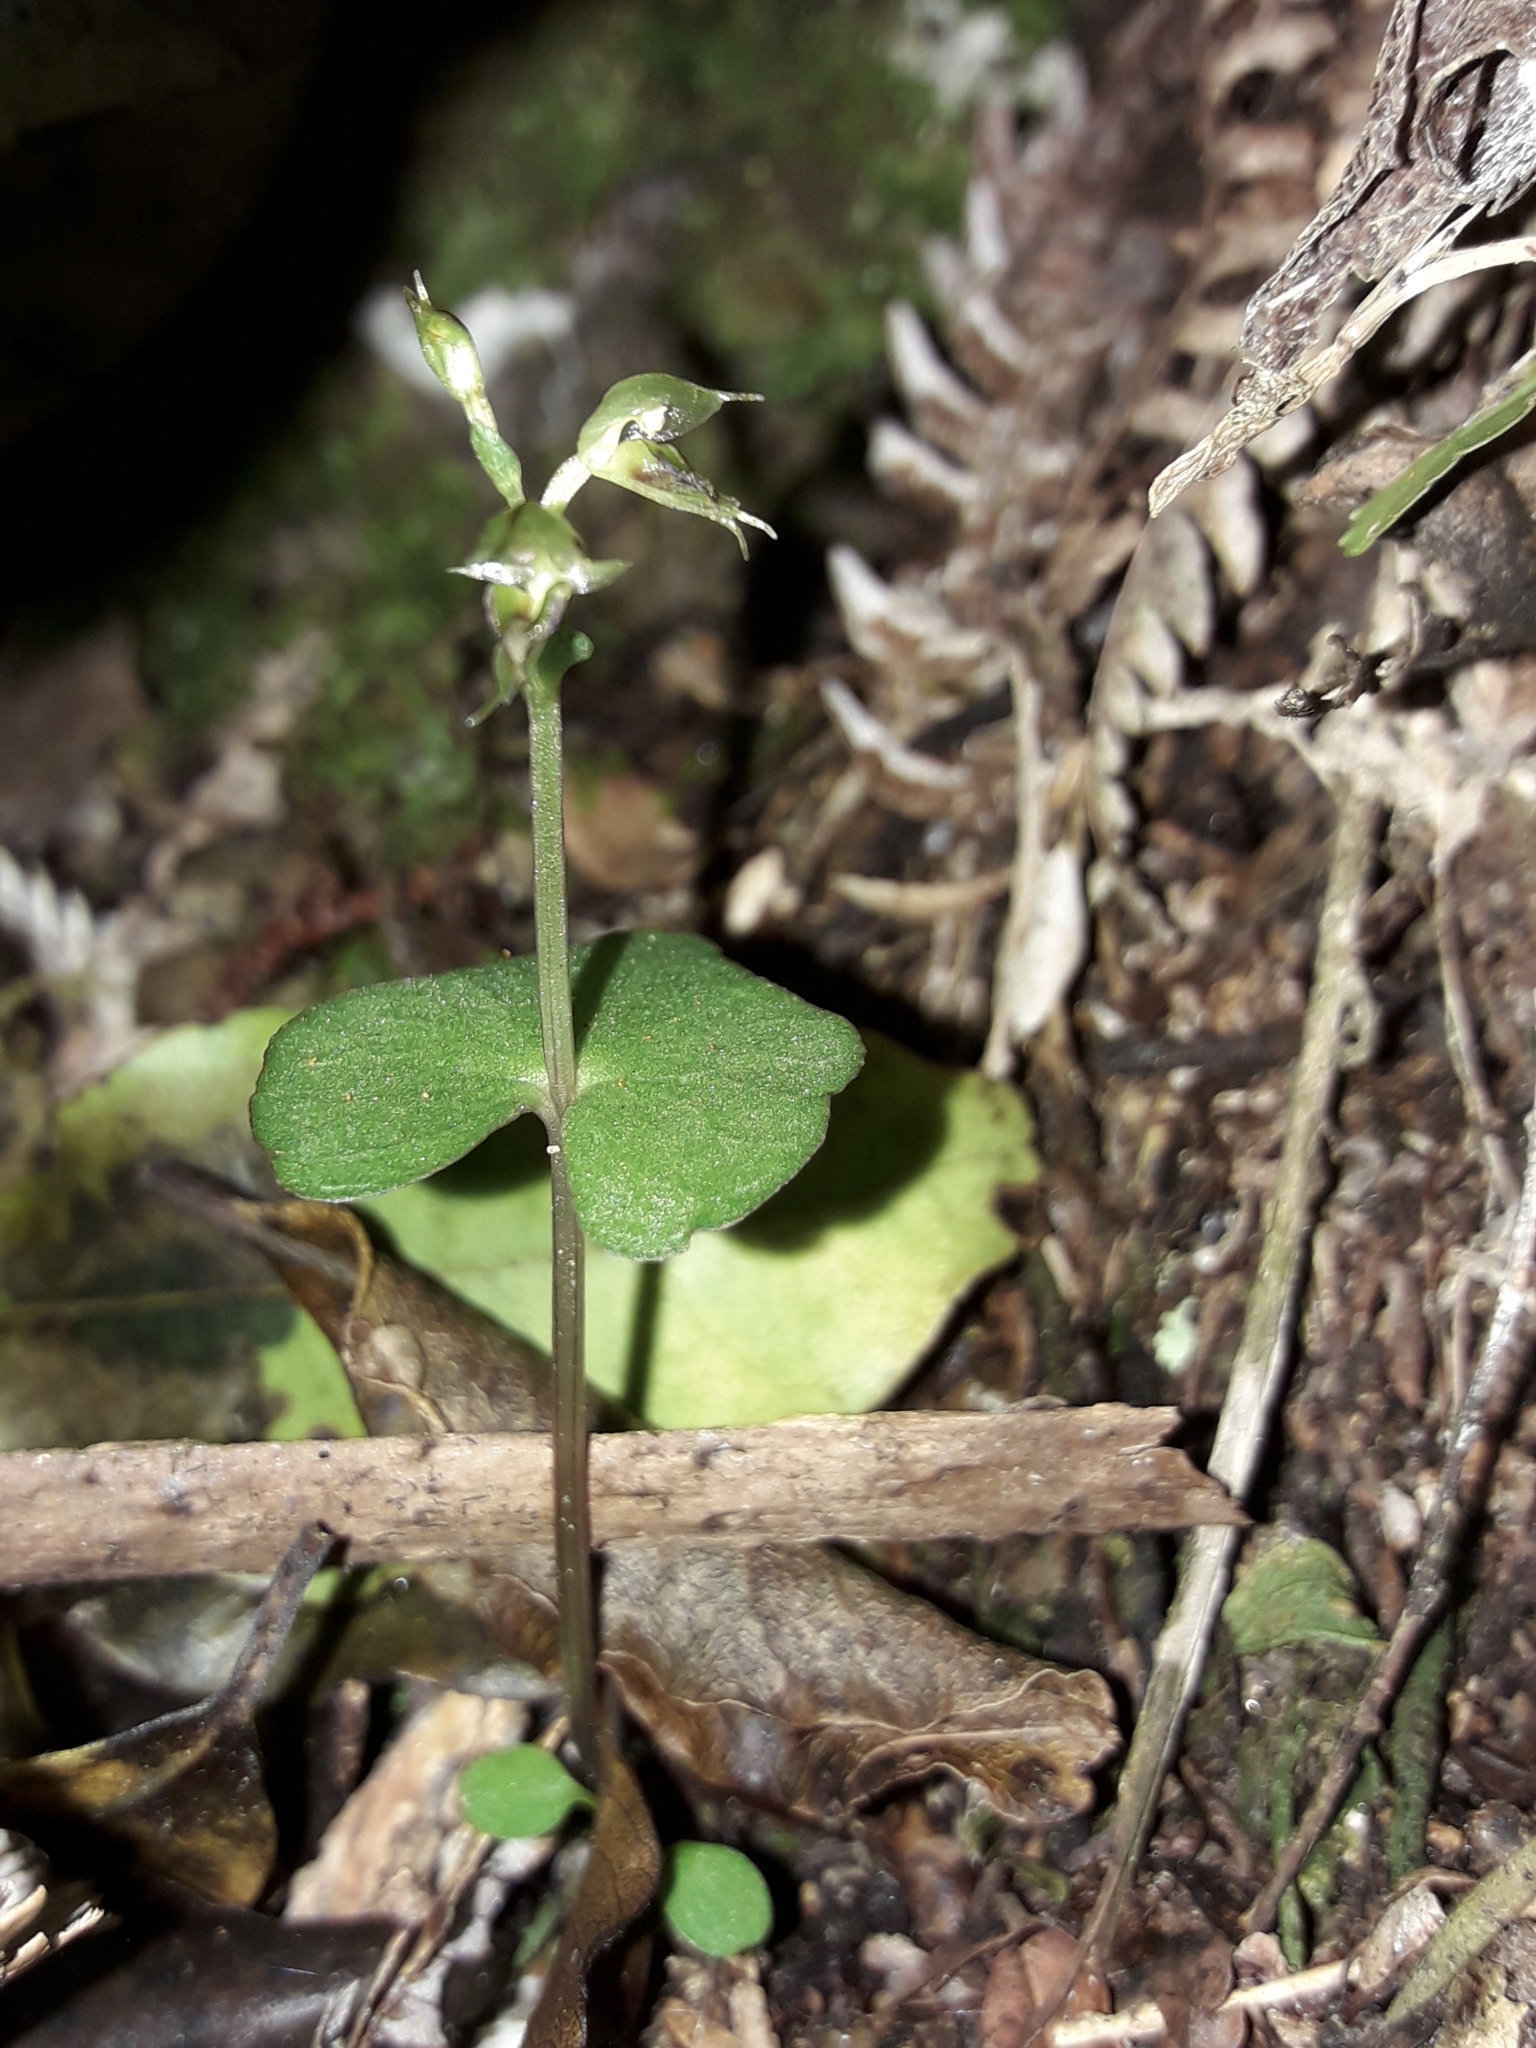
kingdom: Plantae
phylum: Tracheophyta
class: Liliopsida
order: Asparagales
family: Orchidaceae
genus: Acianthus
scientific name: Acianthus sinclairii
